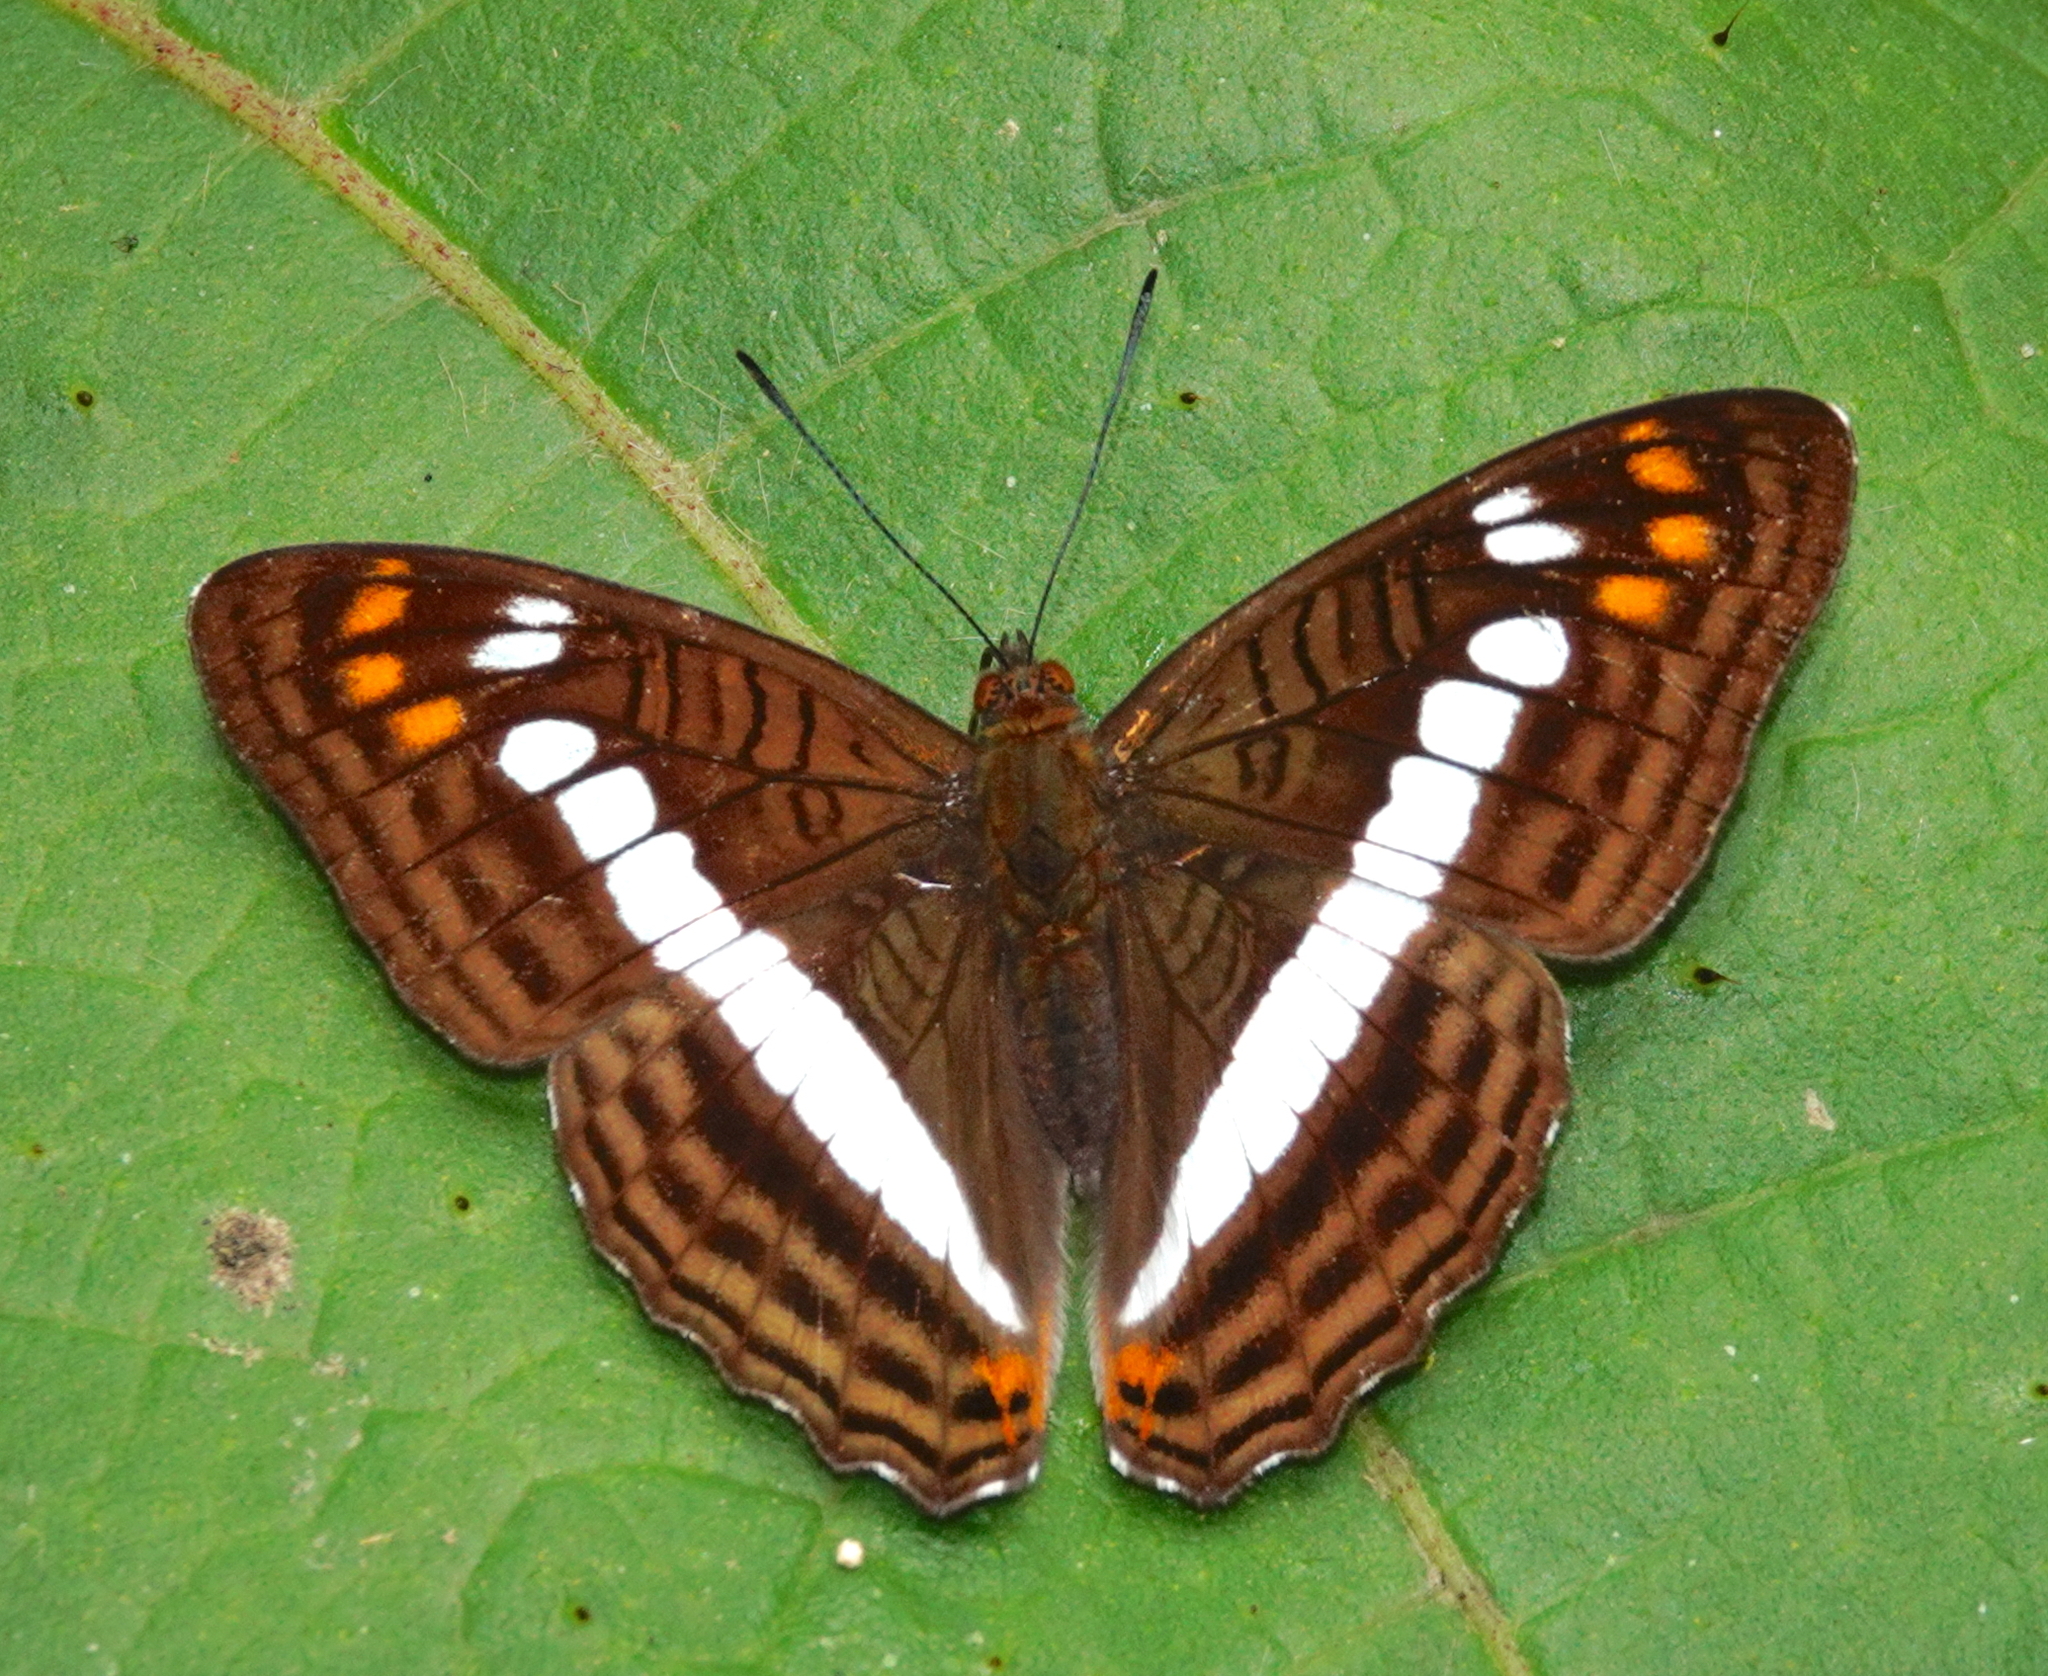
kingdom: Animalia
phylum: Arthropoda
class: Insecta
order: Lepidoptera
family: Nymphalidae
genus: Limenitis
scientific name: Limenitis alala
